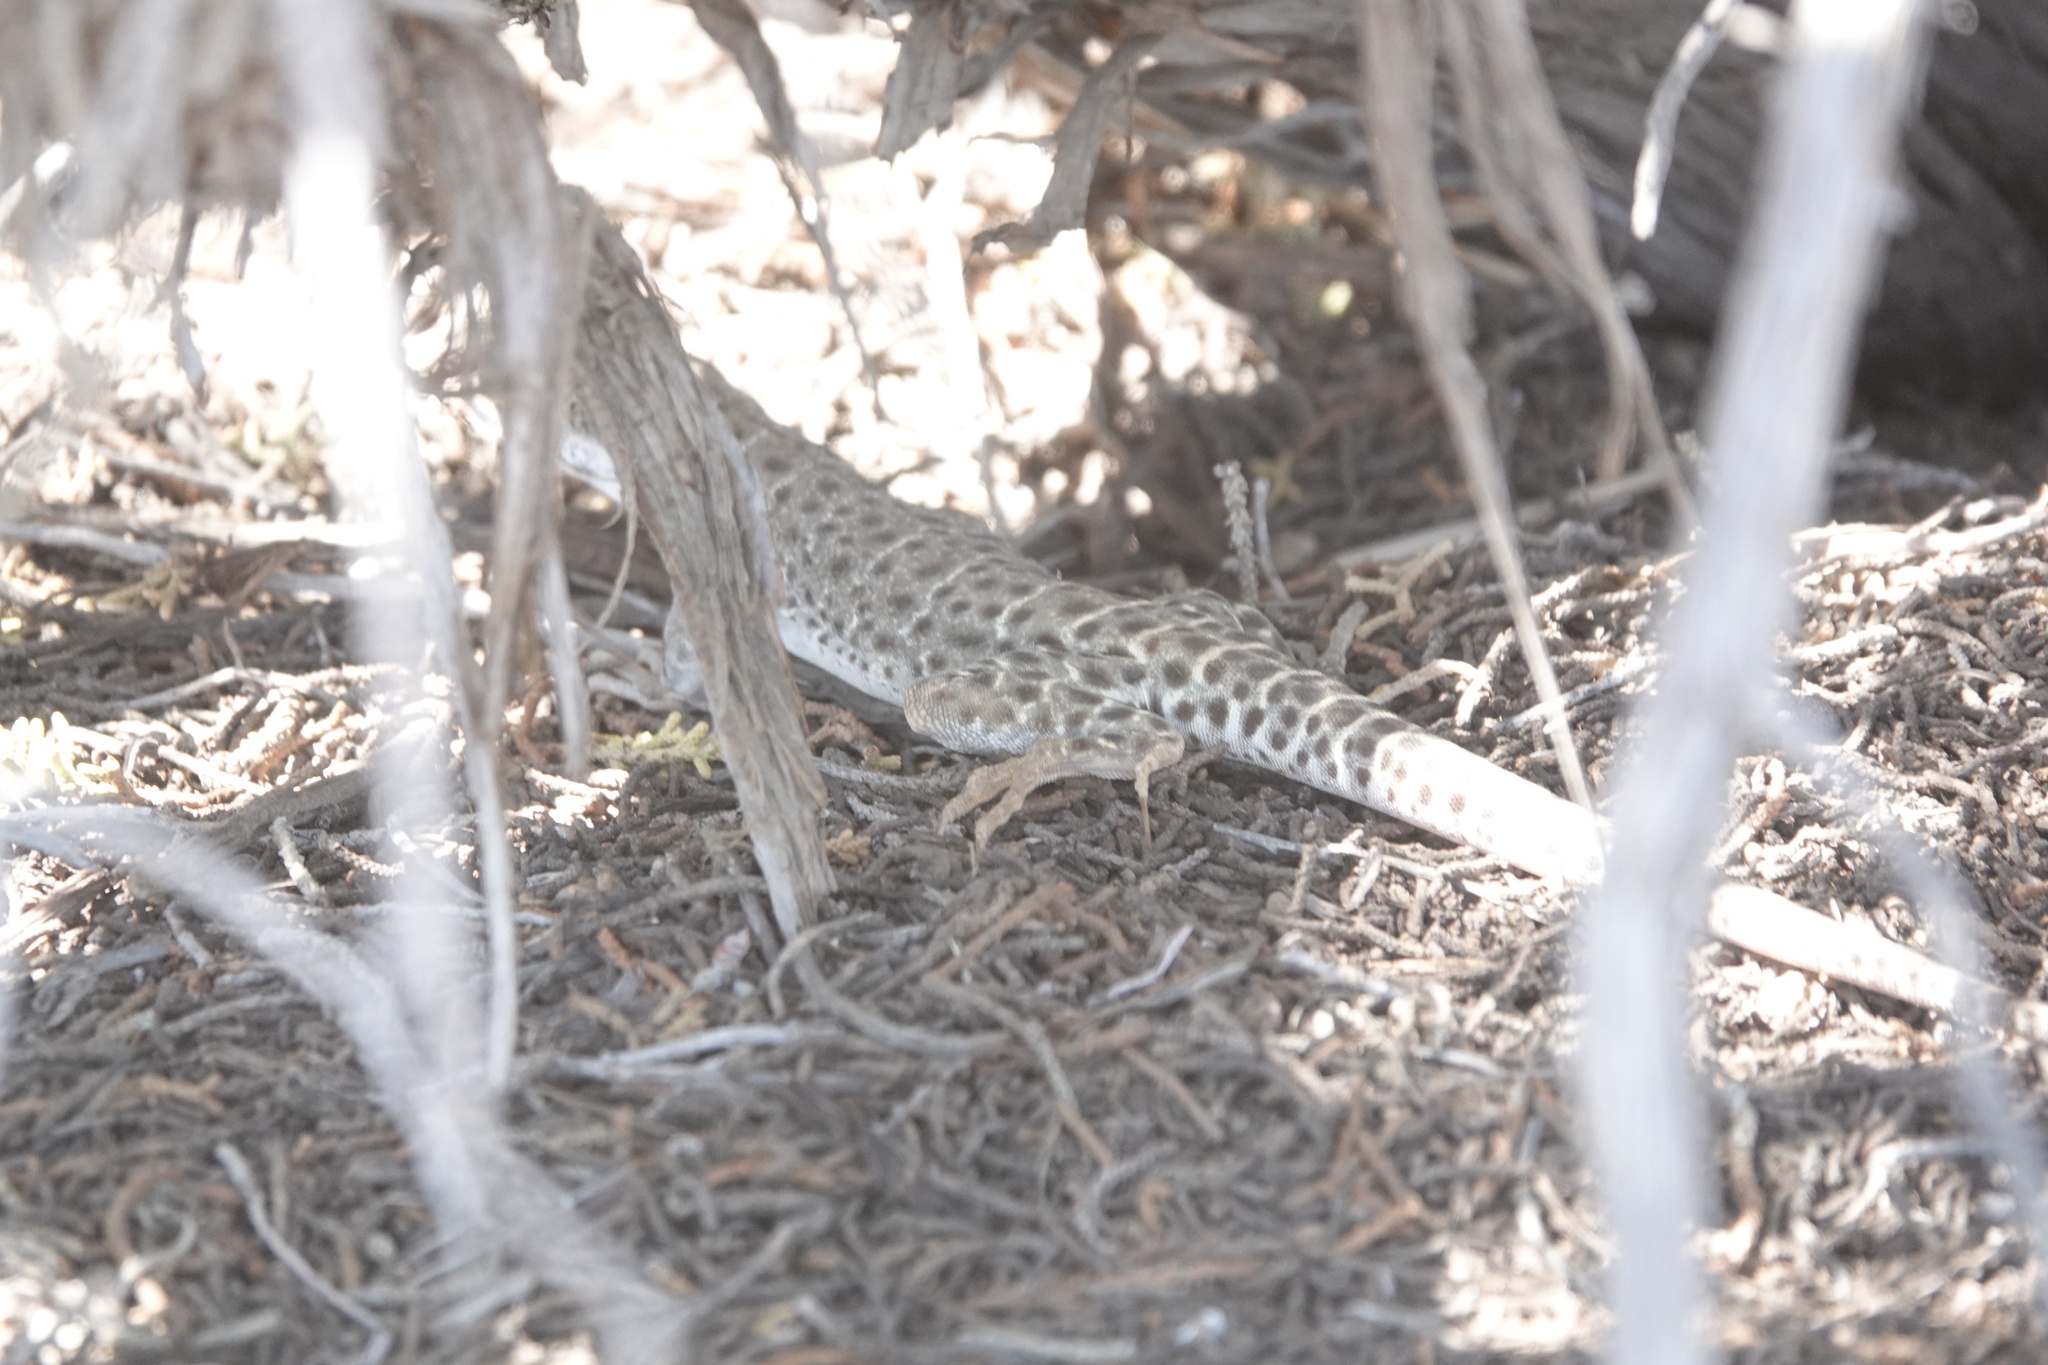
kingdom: Animalia
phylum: Chordata
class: Squamata
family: Crotaphytidae
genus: Gambelia
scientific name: Gambelia wislizenii
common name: Longnose leopard lizard
